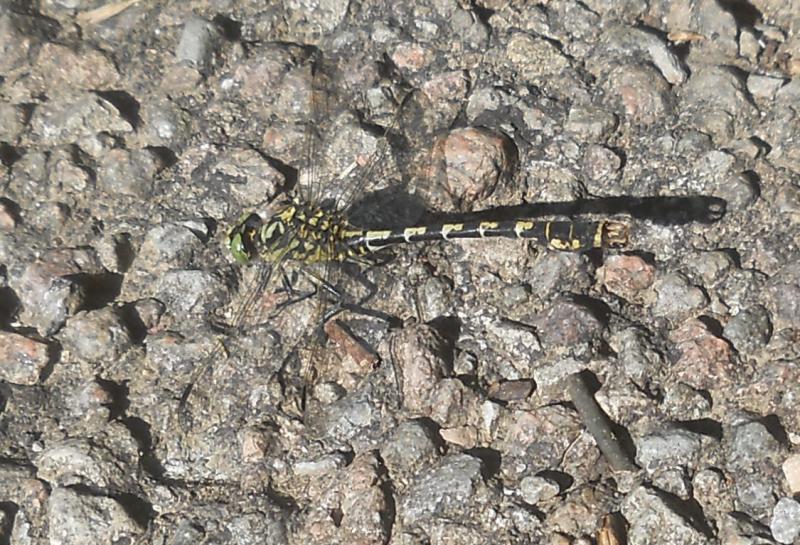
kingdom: Animalia
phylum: Arthropoda
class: Insecta
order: Odonata
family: Gomphidae
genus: Onychogomphus
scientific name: Onychogomphus forcipatus
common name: Small pincertail
